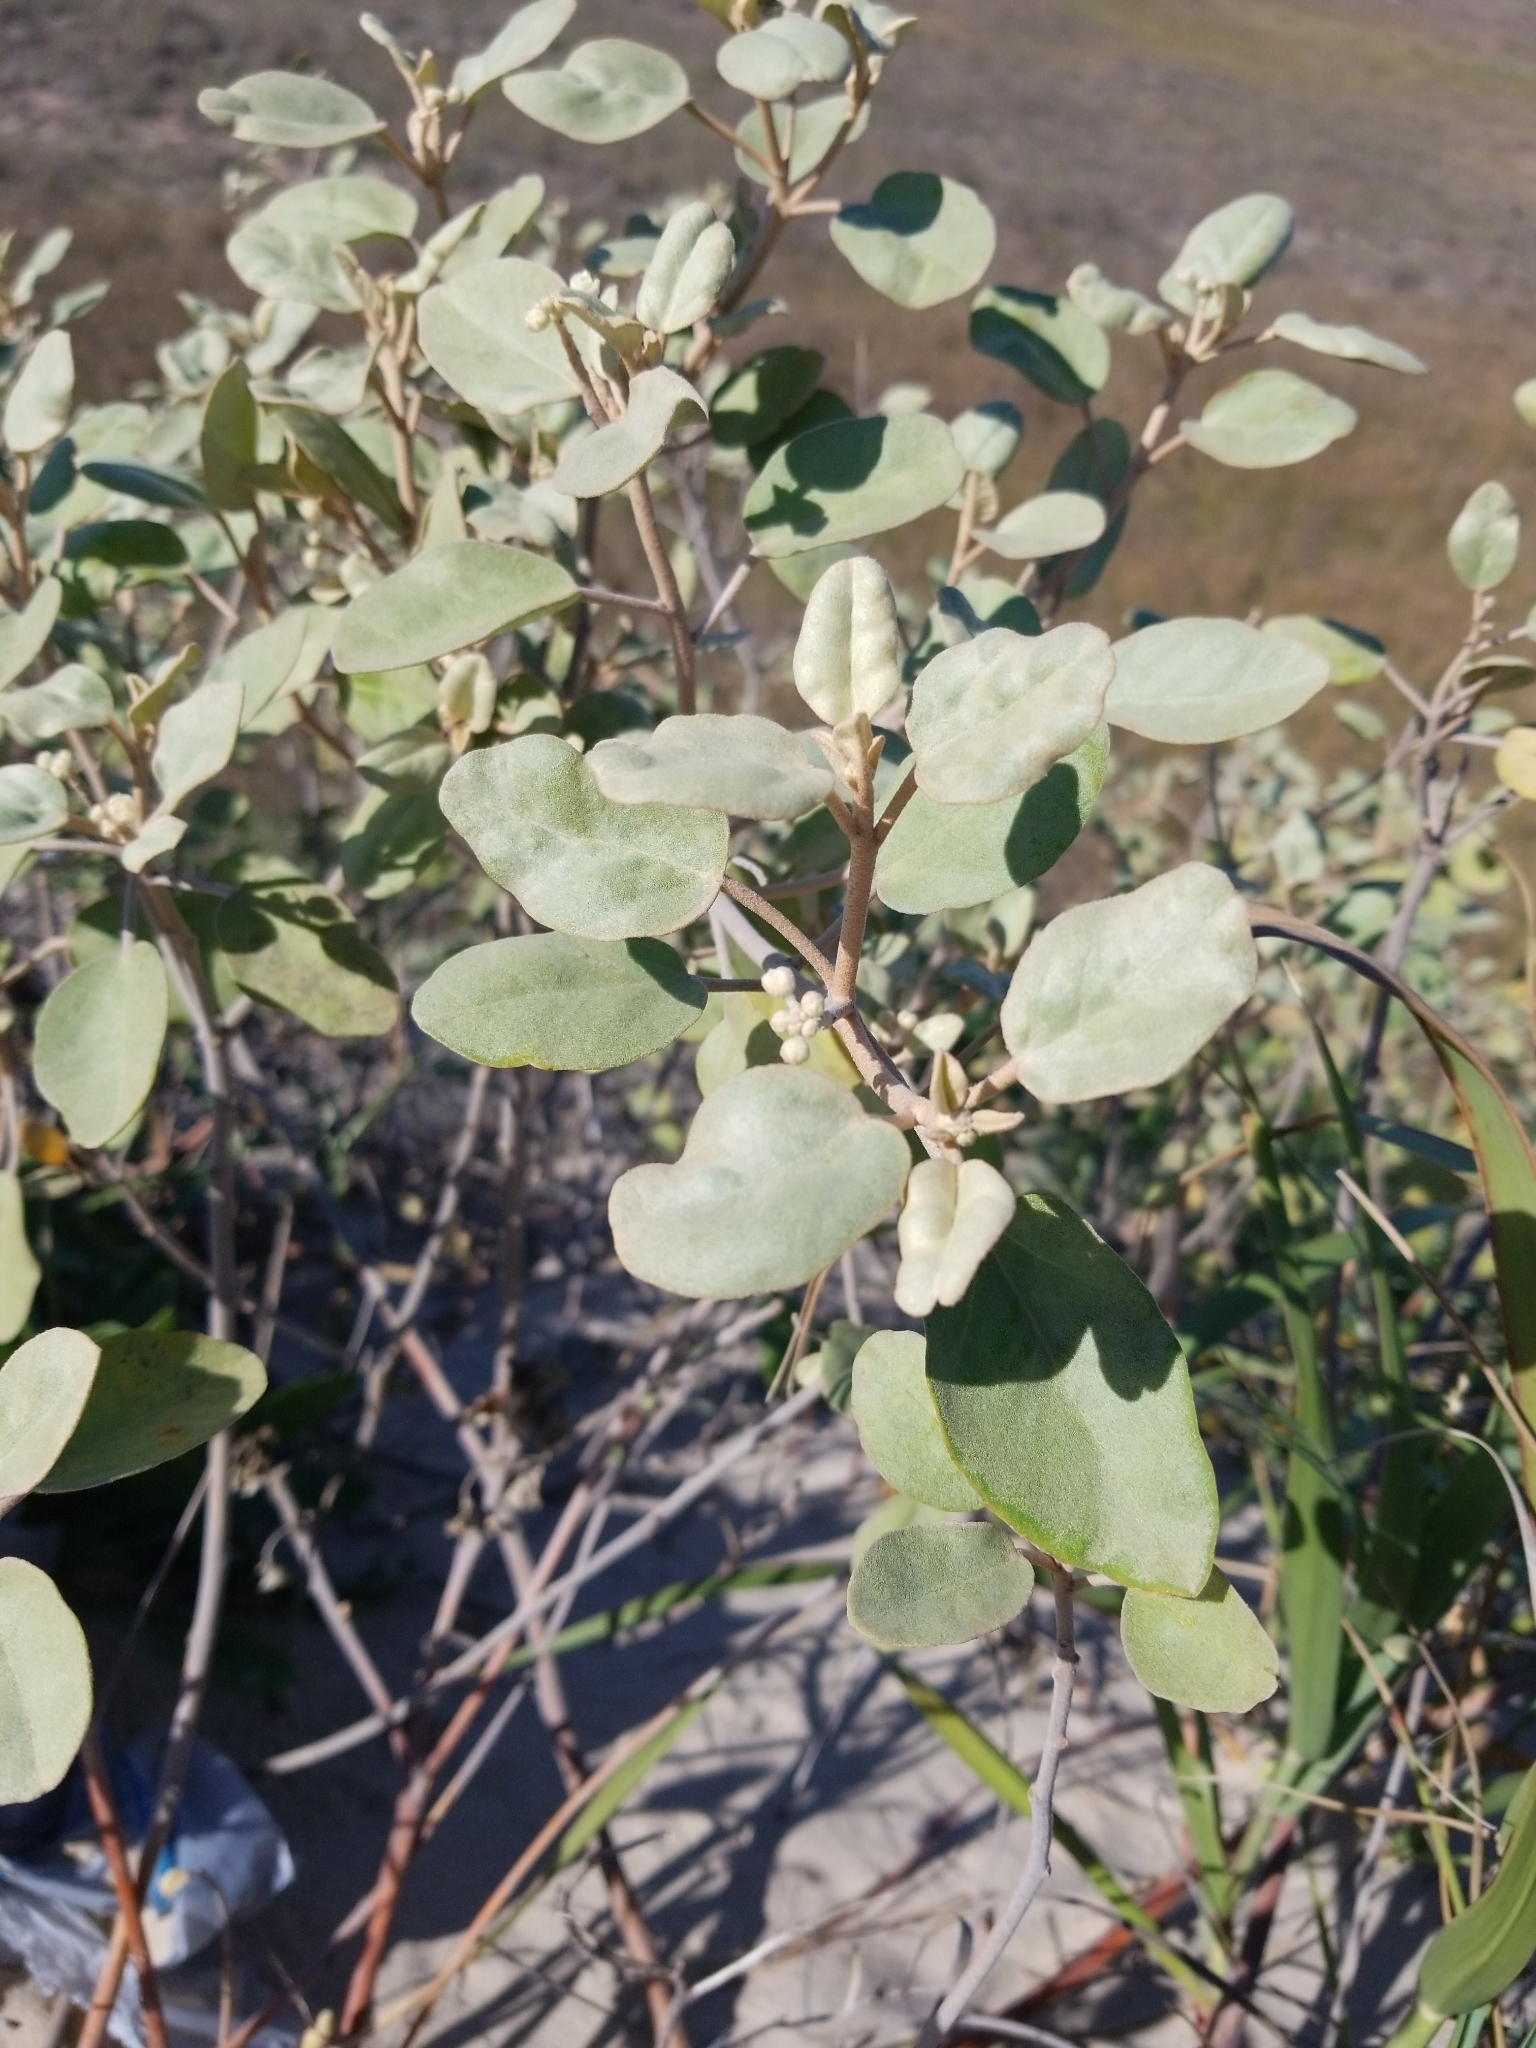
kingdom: Plantae
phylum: Tracheophyta
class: Magnoliopsida
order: Malpighiales
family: Euphorbiaceae
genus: Croton
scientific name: Croton punctatus
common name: Beach-tea
